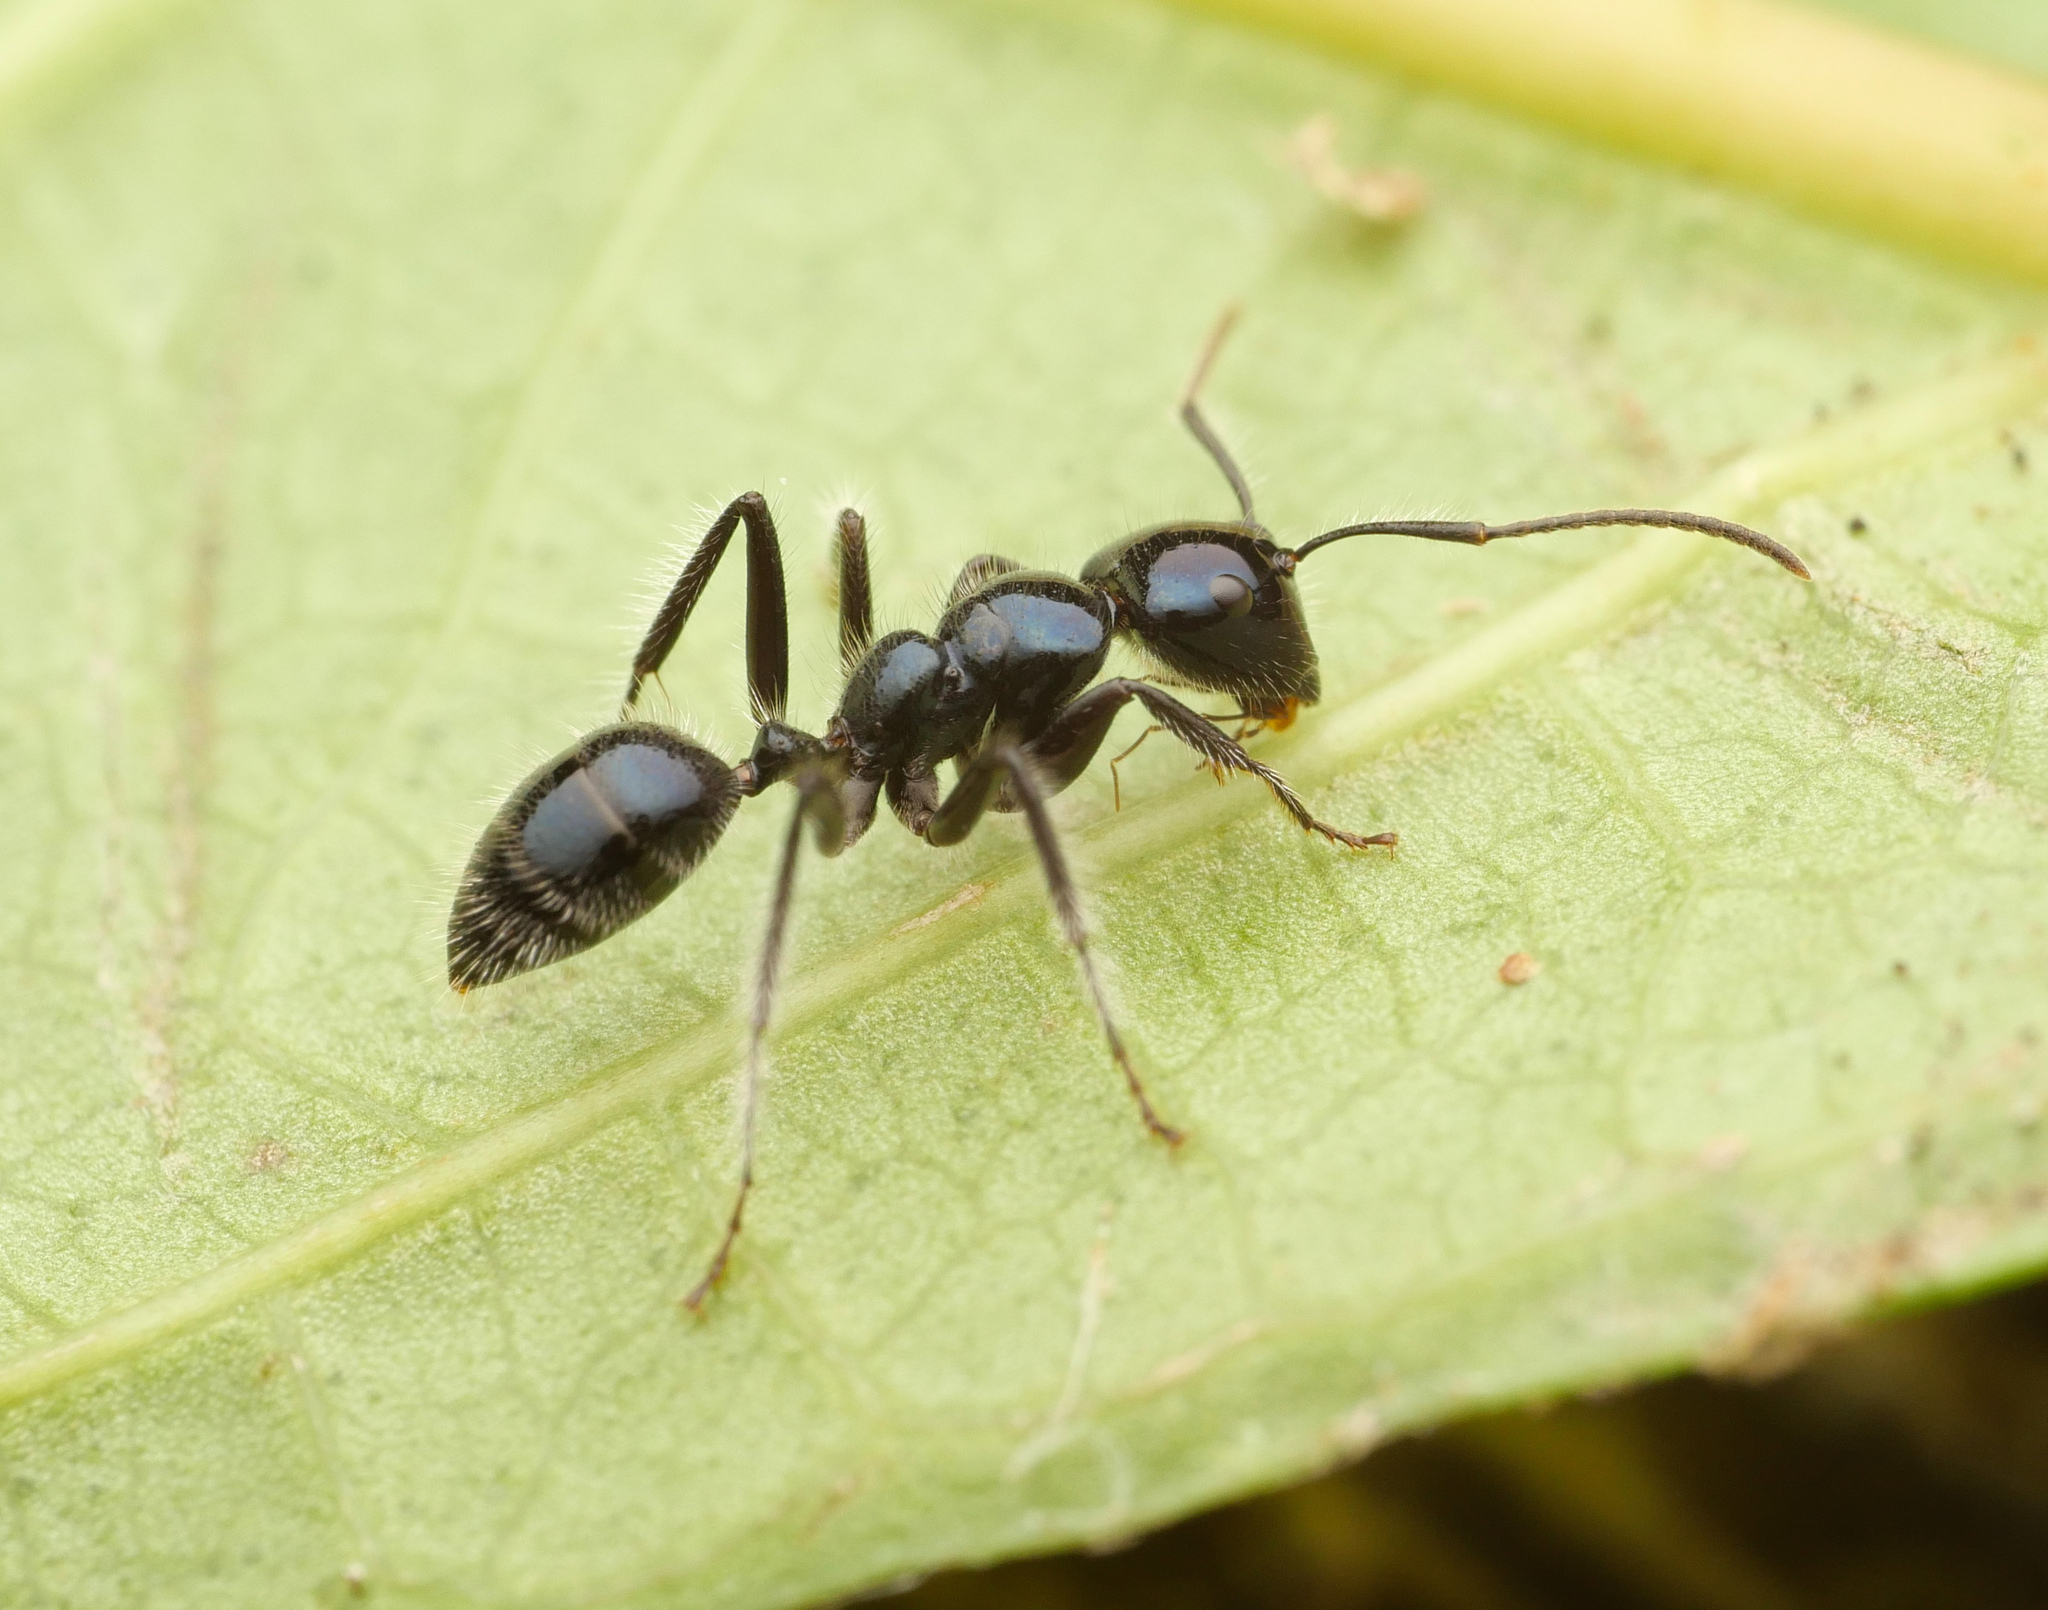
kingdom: Animalia
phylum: Arthropoda
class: Insecta
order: Hymenoptera
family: Formicidae
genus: Calomyrmex
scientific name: Calomyrmex laevissimus
